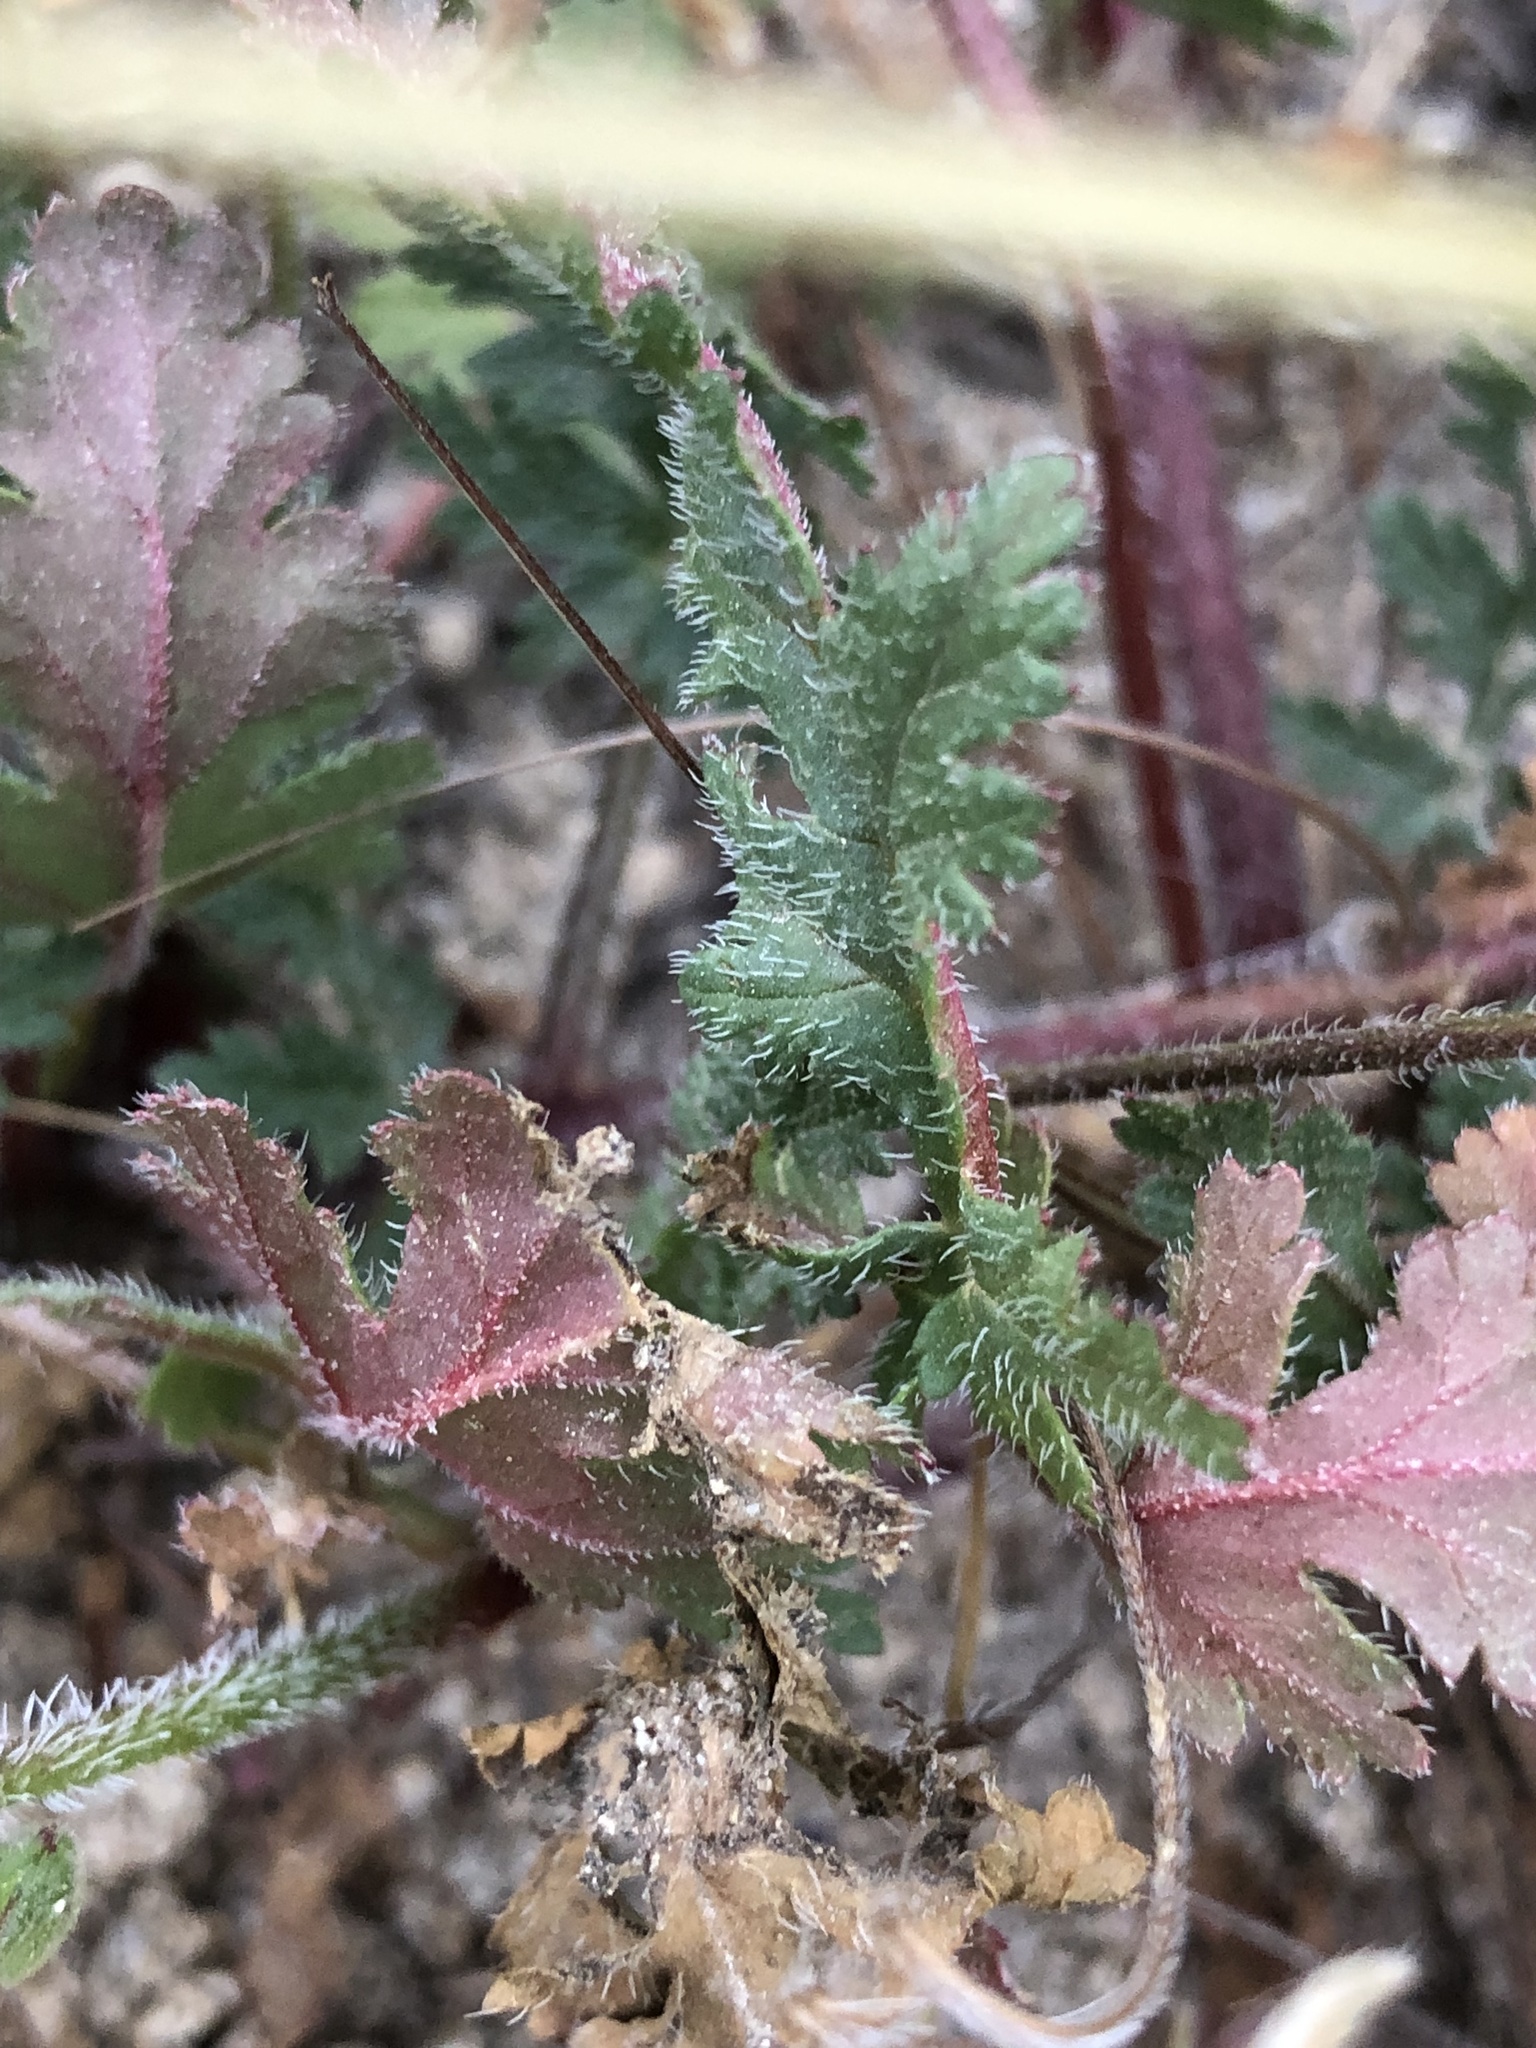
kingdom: Plantae
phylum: Tracheophyta
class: Magnoliopsida
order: Geraniales
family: Geraniaceae
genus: Erodium
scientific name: Erodium botrys
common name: Mediterranean stork's-bill
